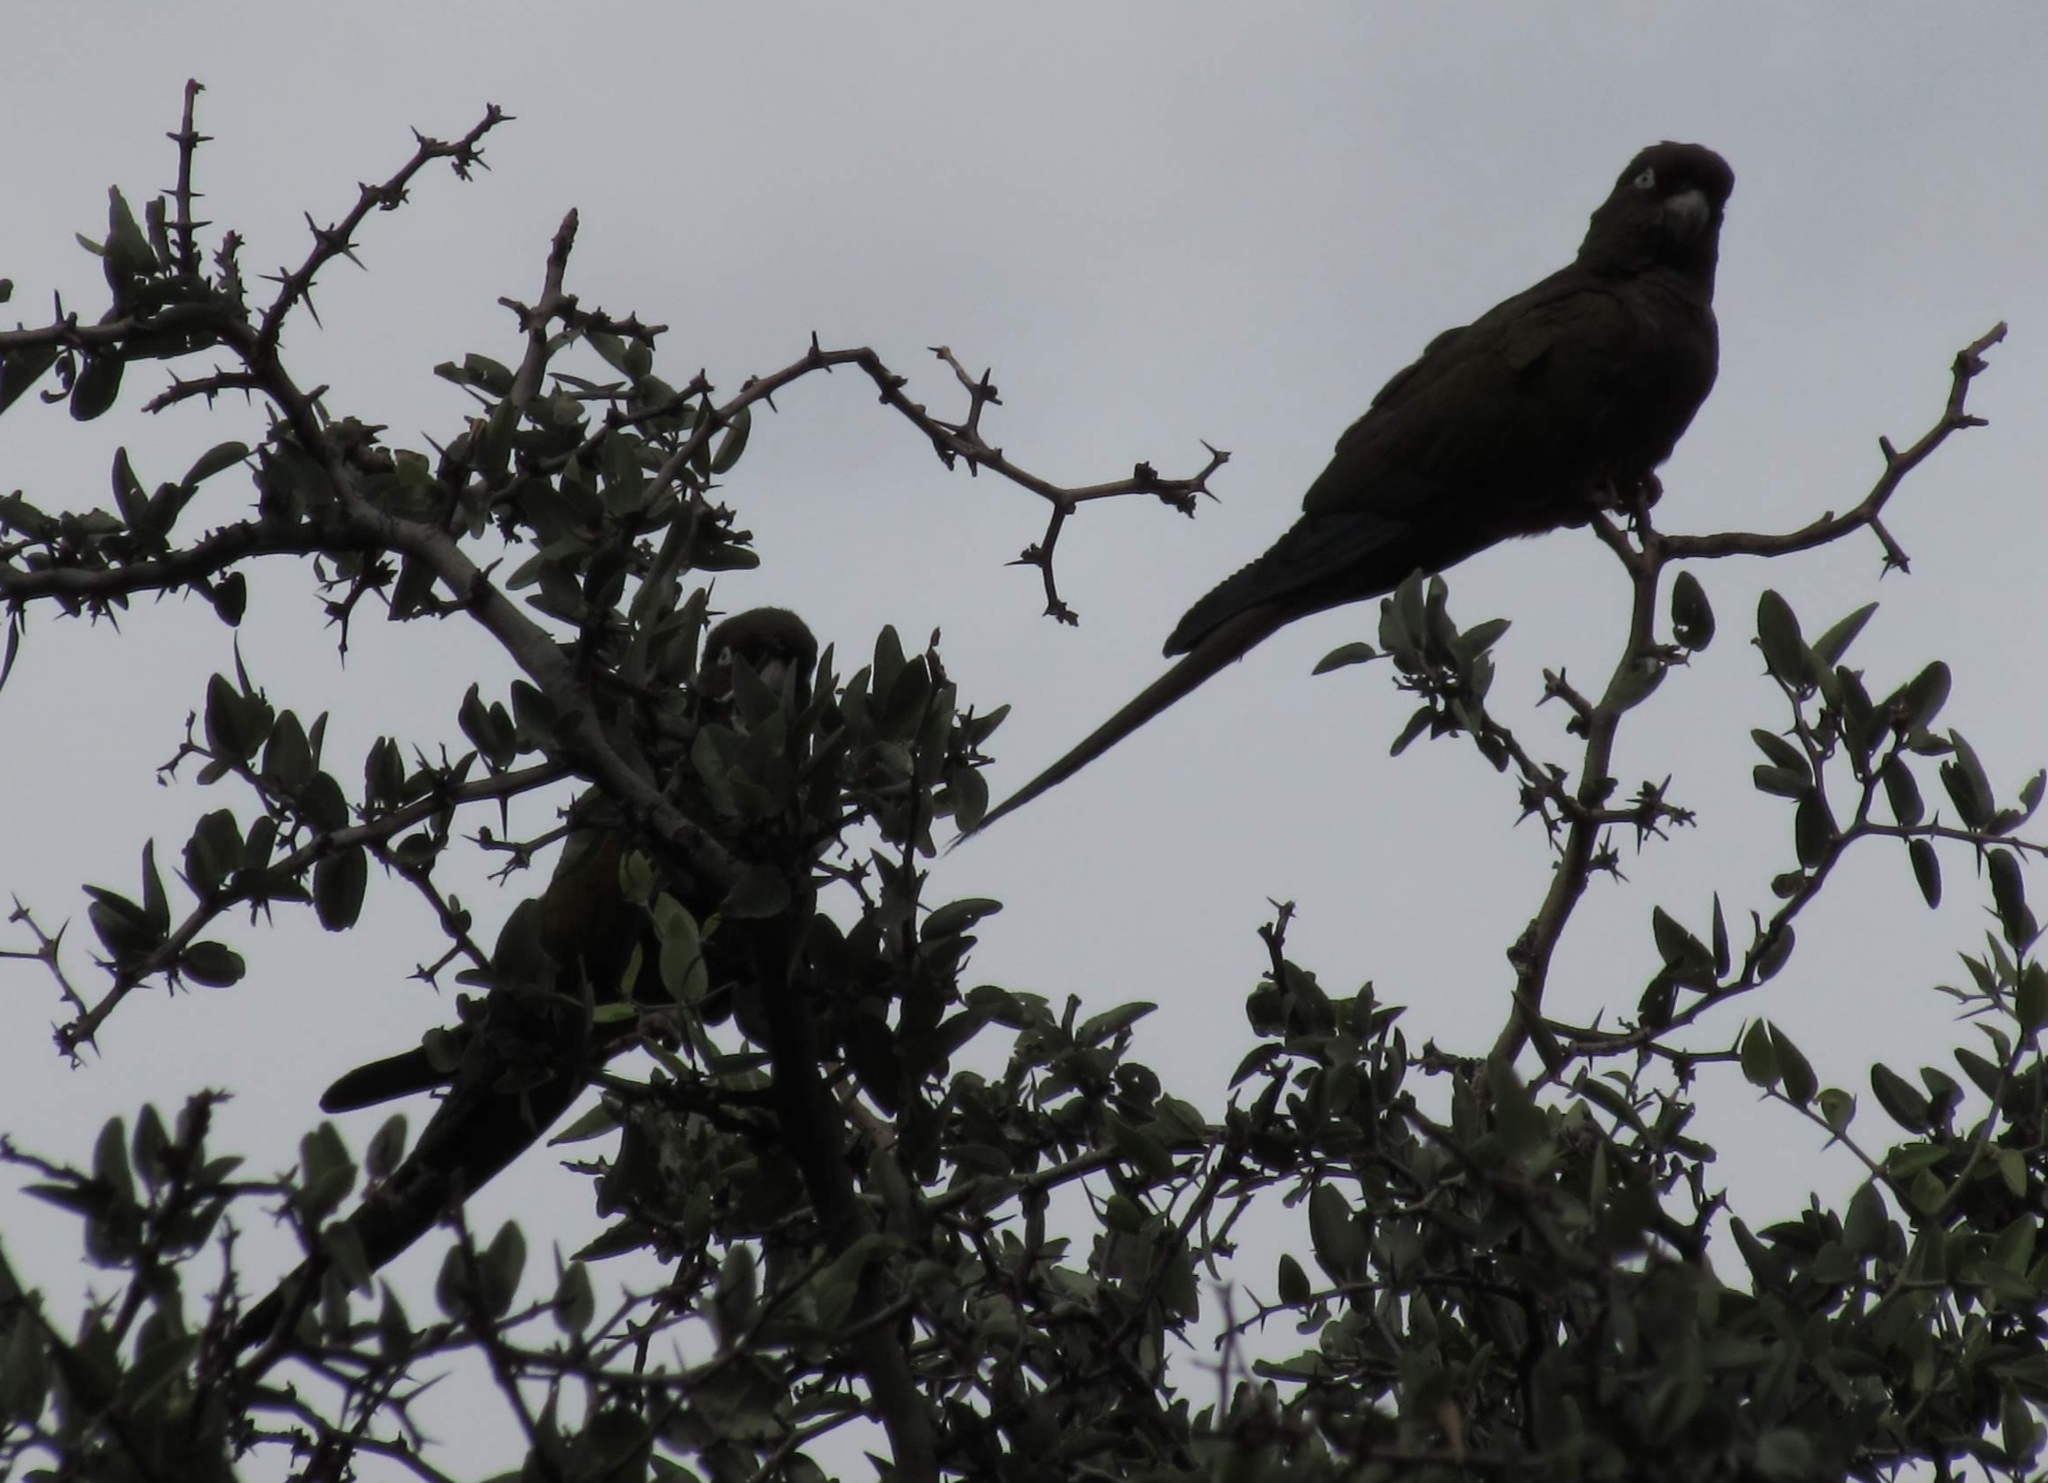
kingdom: Animalia
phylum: Chordata
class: Aves
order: Psittaciformes
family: Psittacidae
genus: Cyanoliseus
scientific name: Cyanoliseus patagonus
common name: Burrowing parrot
